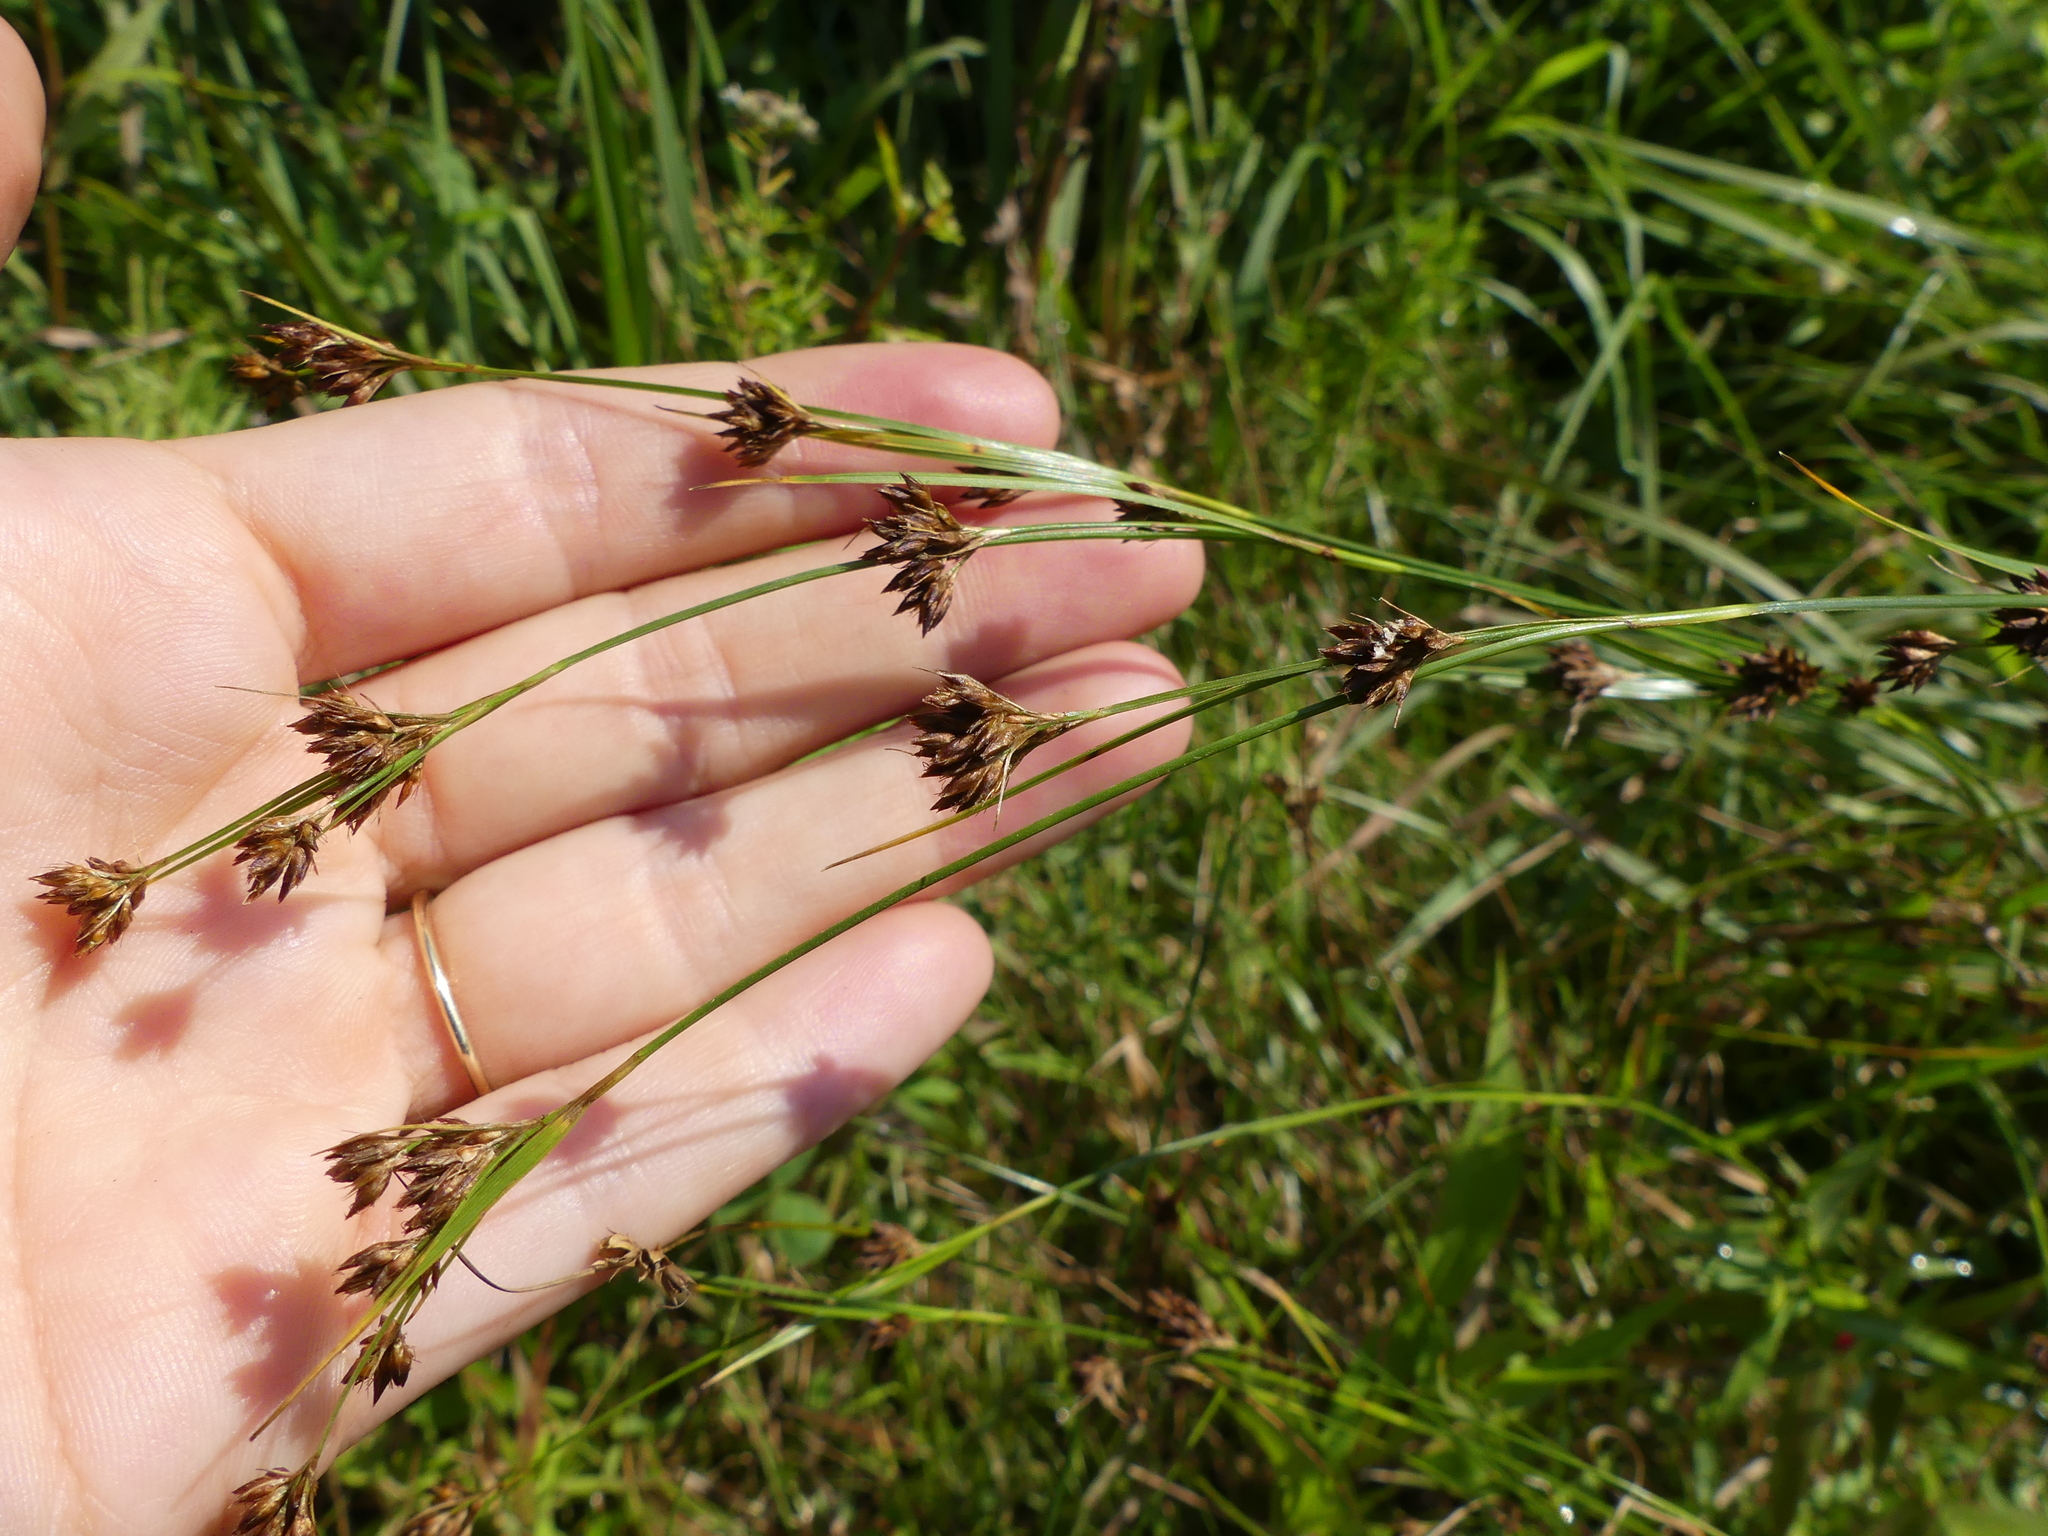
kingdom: Plantae
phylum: Tracheophyta
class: Liliopsida
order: Poales
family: Cyperaceae
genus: Rhynchospora
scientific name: Rhynchospora capitellata
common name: Brownish beaksedge
